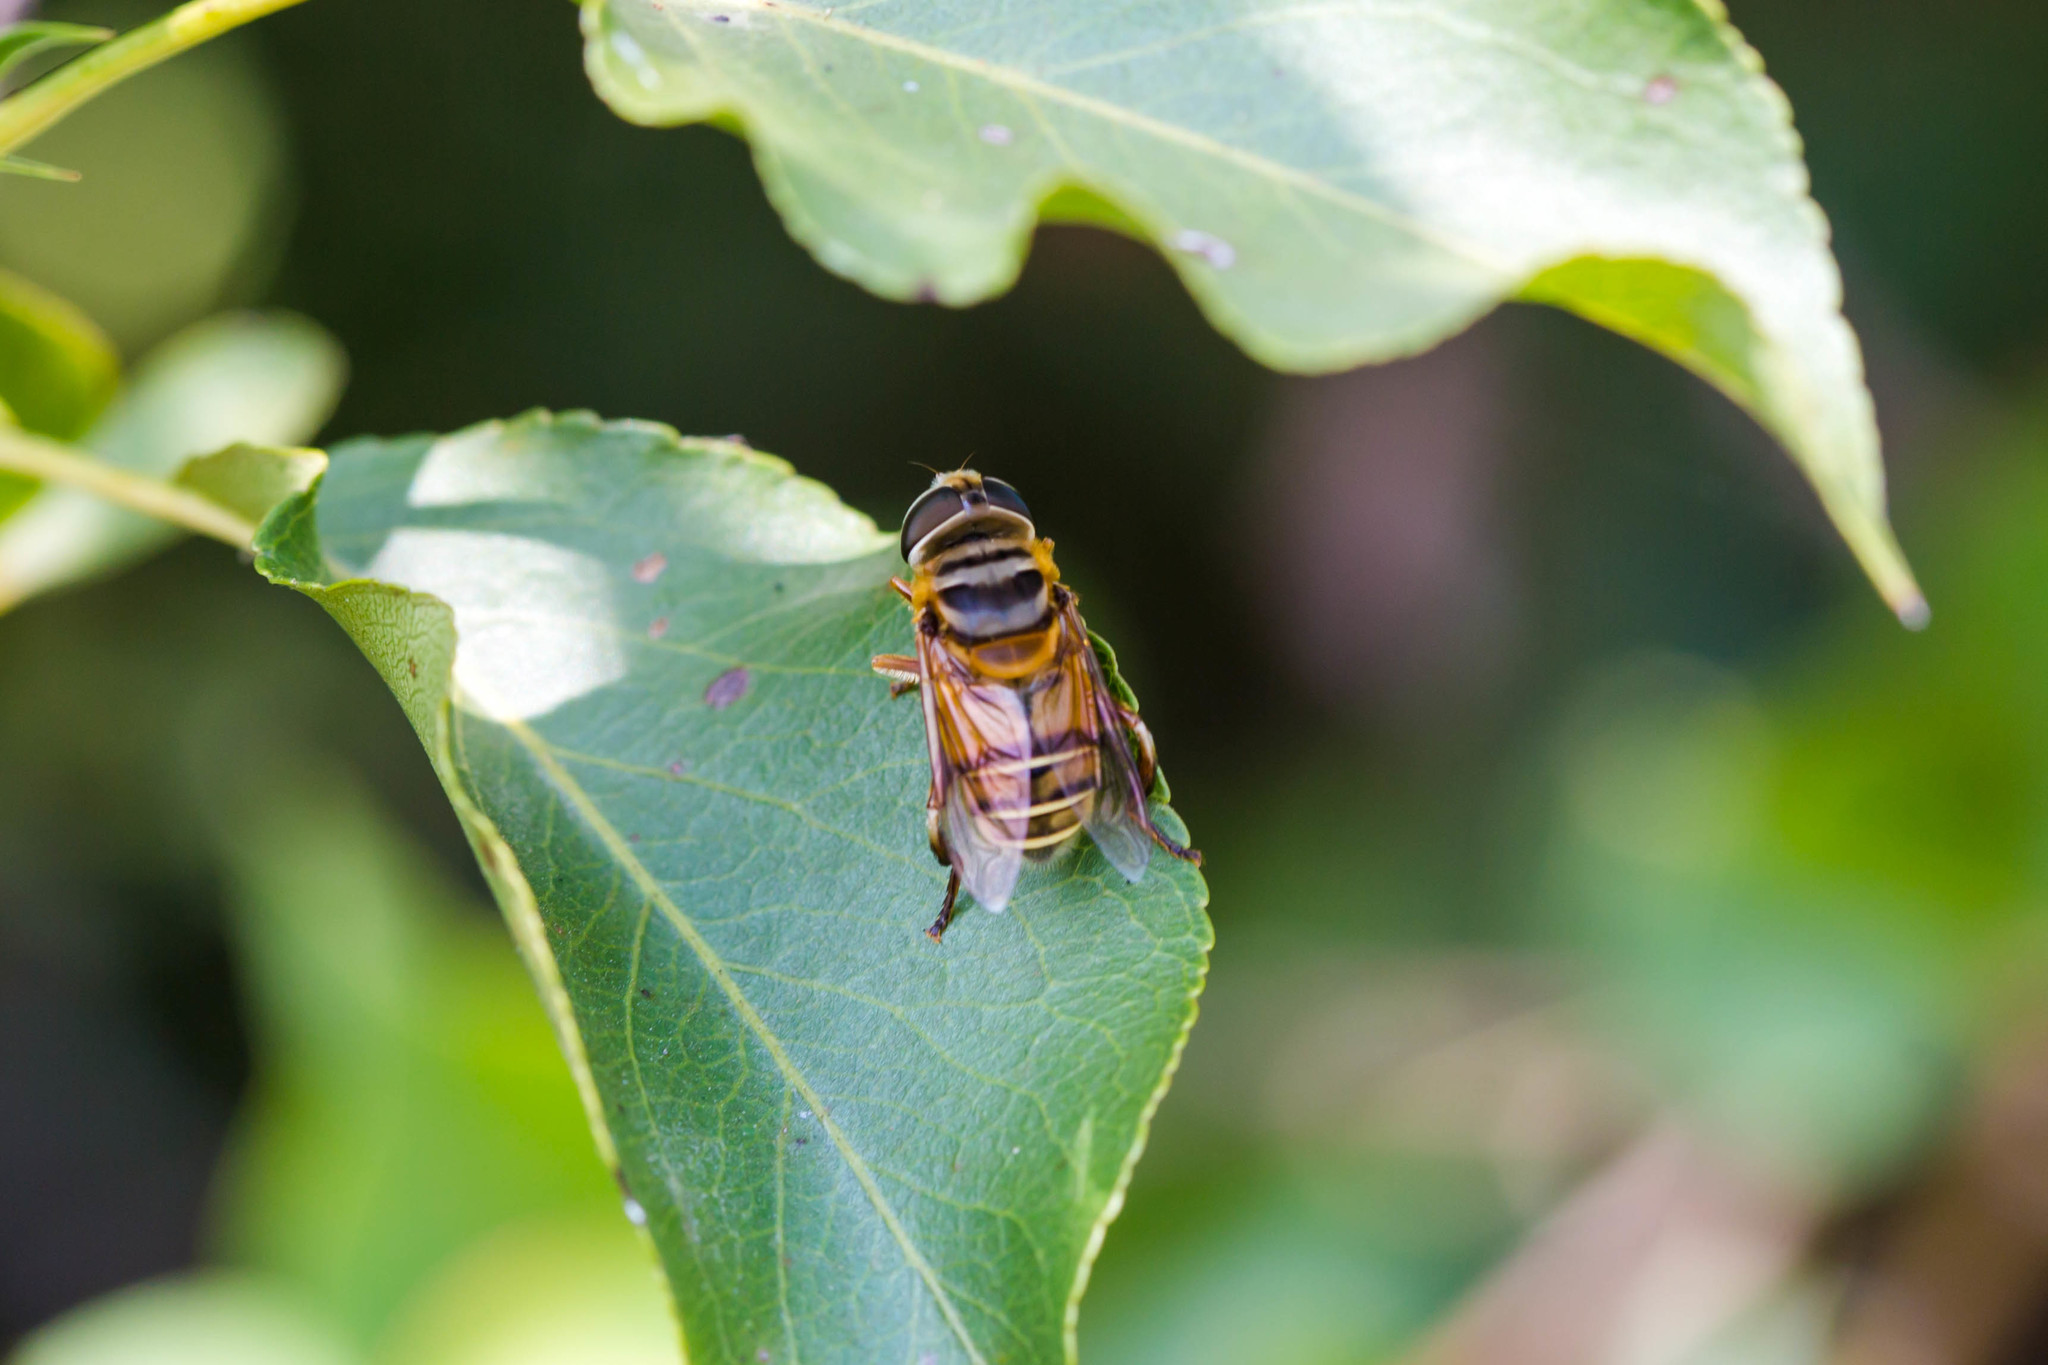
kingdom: Animalia
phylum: Arthropoda
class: Insecta
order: Diptera
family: Syrphidae
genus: Palpada
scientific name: Palpada vinetorum
